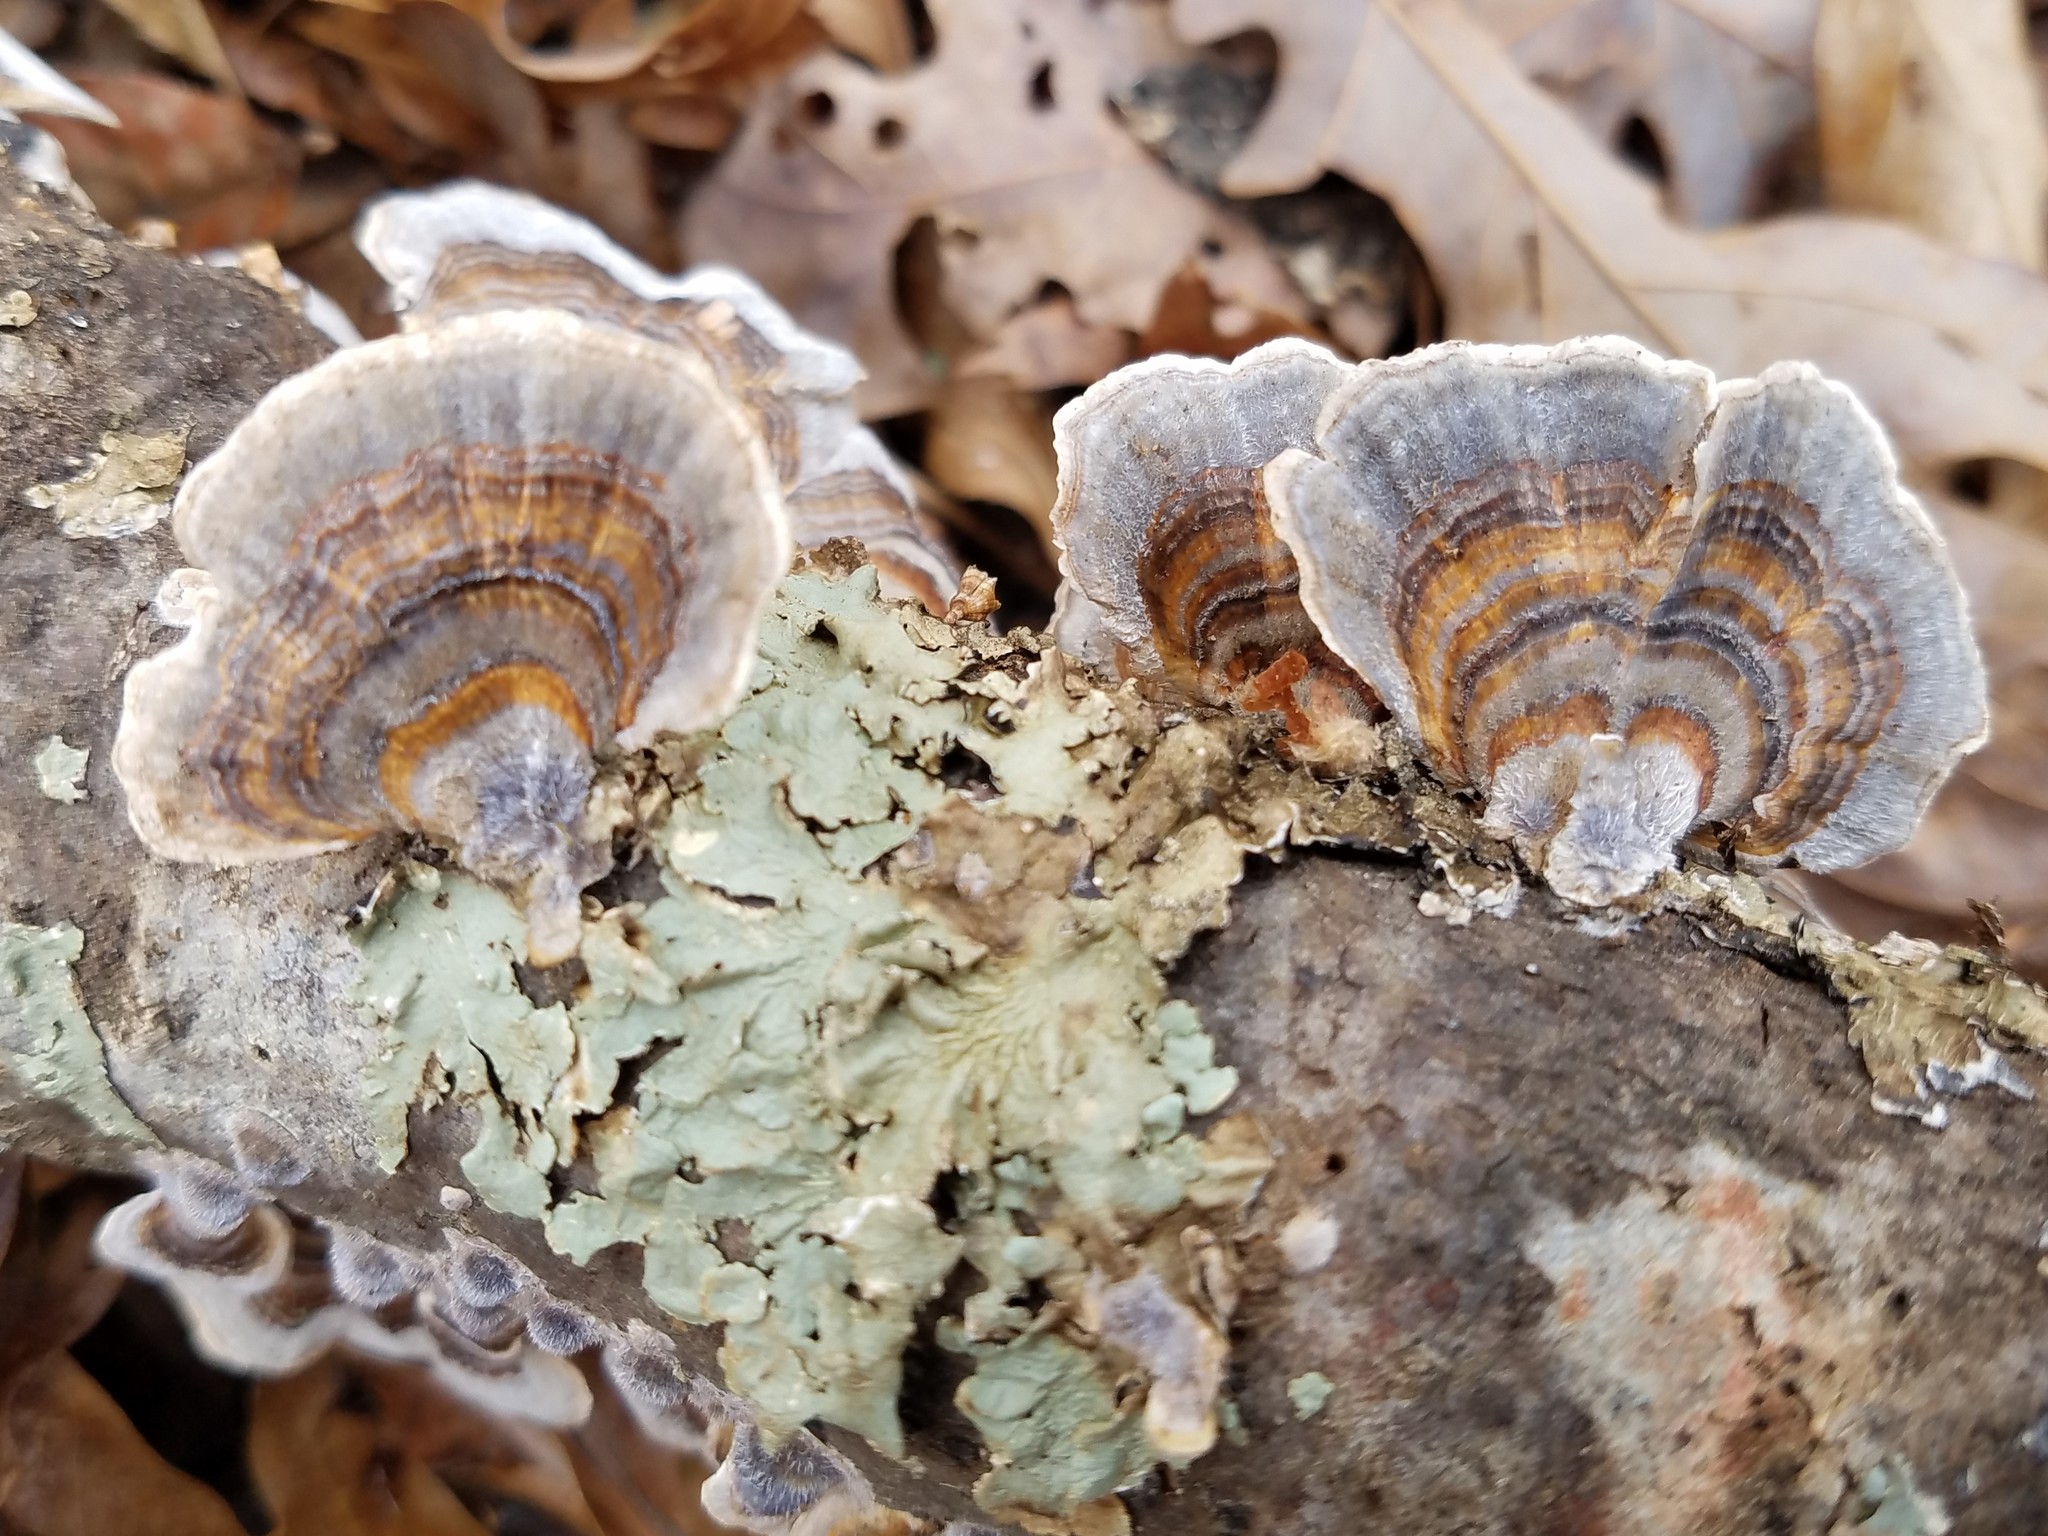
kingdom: Fungi
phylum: Basidiomycota
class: Agaricomycetes
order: Polyporales
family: Polyporaceae
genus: Trametes
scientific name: Trametes versicolor
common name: Turkeytail
